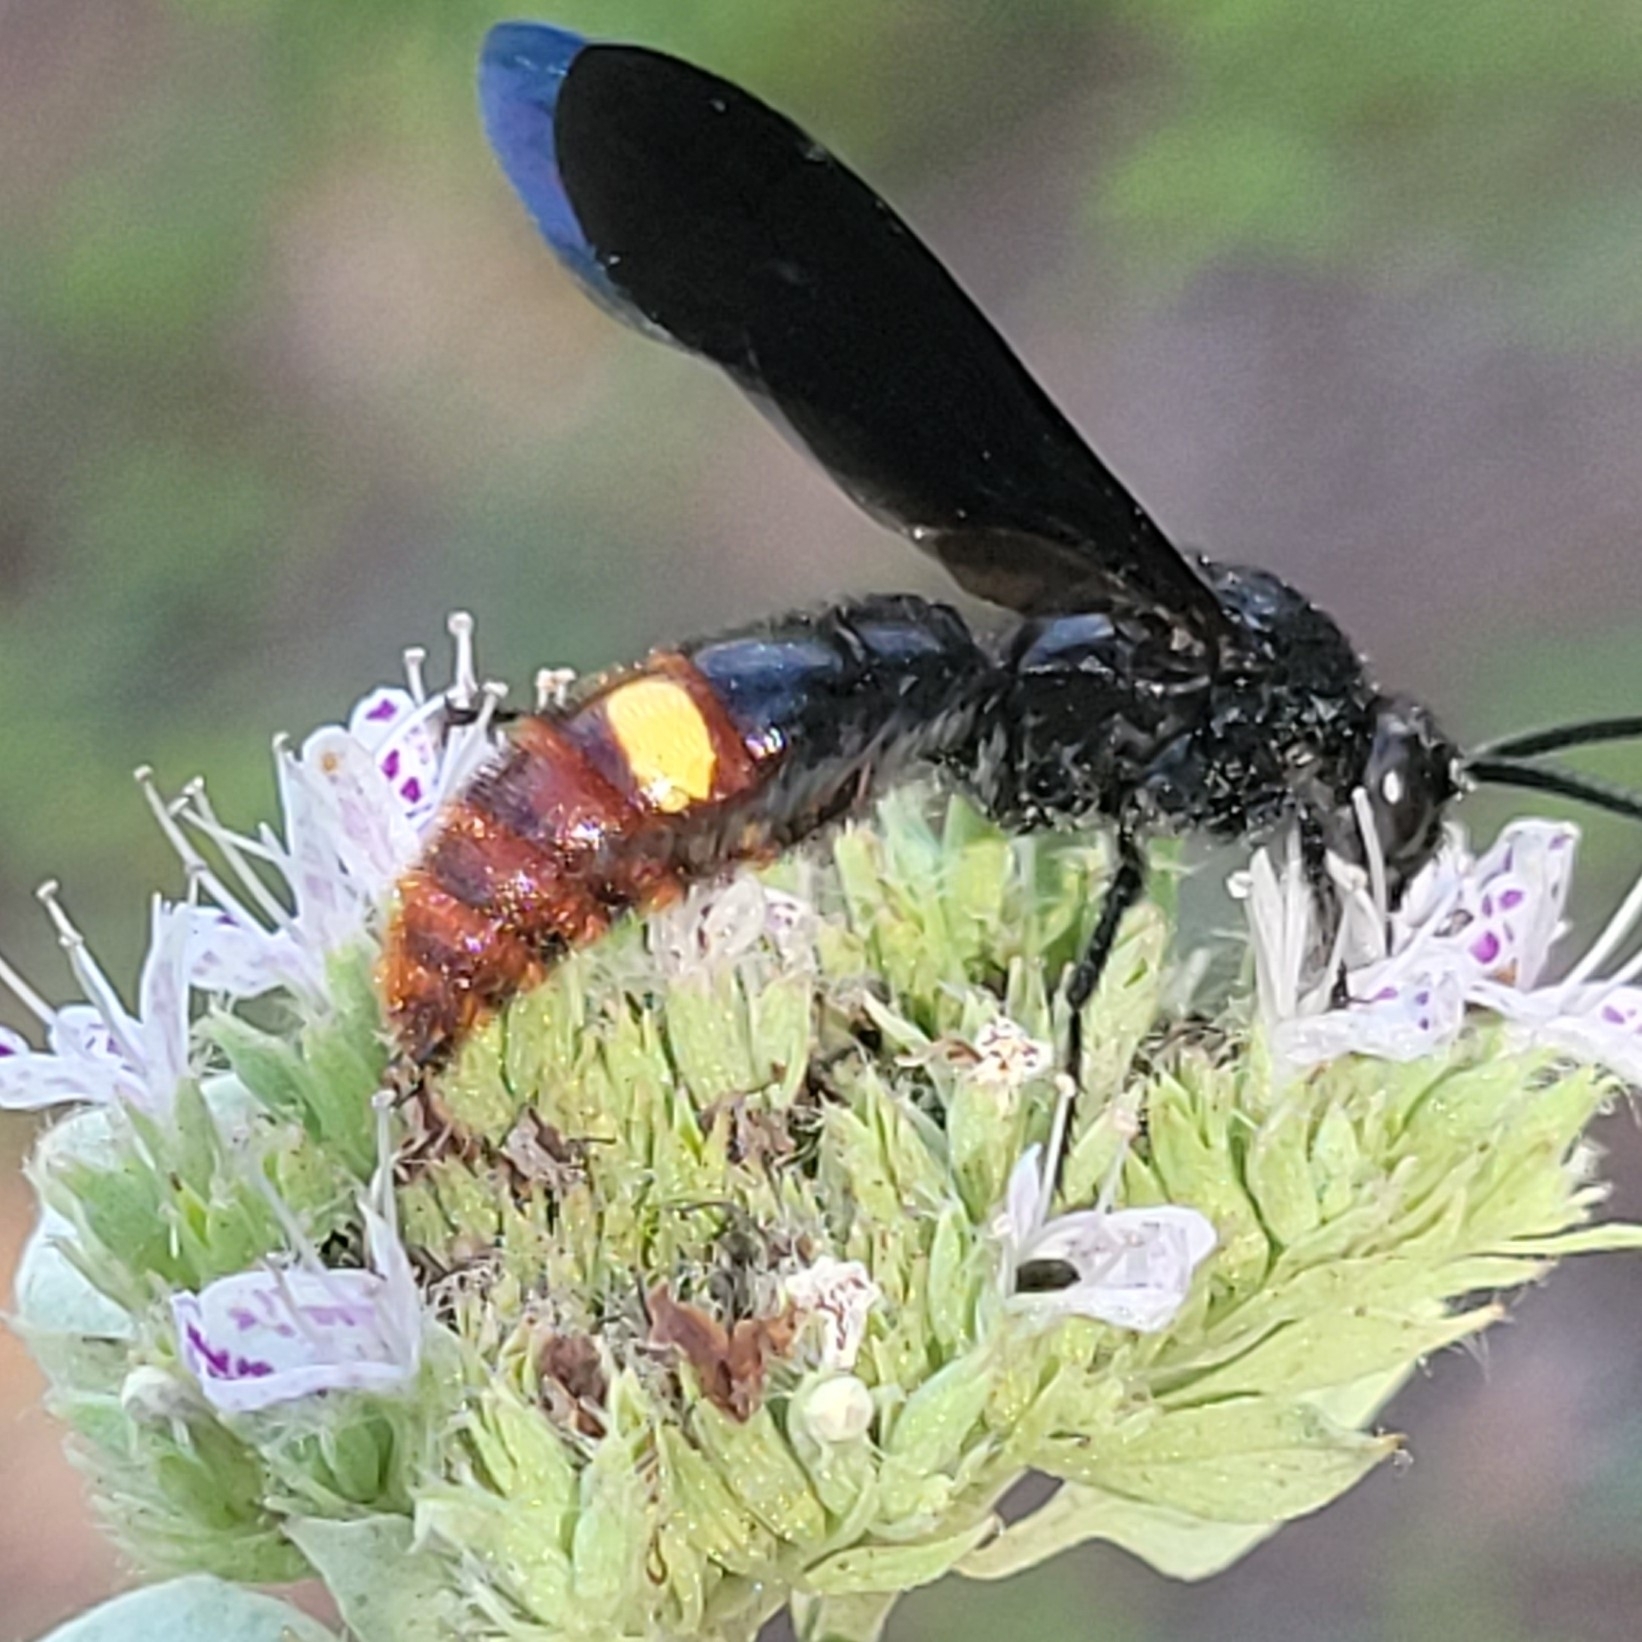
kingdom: Animalia
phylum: Arthropoda
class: Insecta
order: Hymenoptera
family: Scoliidae
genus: Scolia
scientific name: Scolia dubia
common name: Blue-winged scoliid wasp
